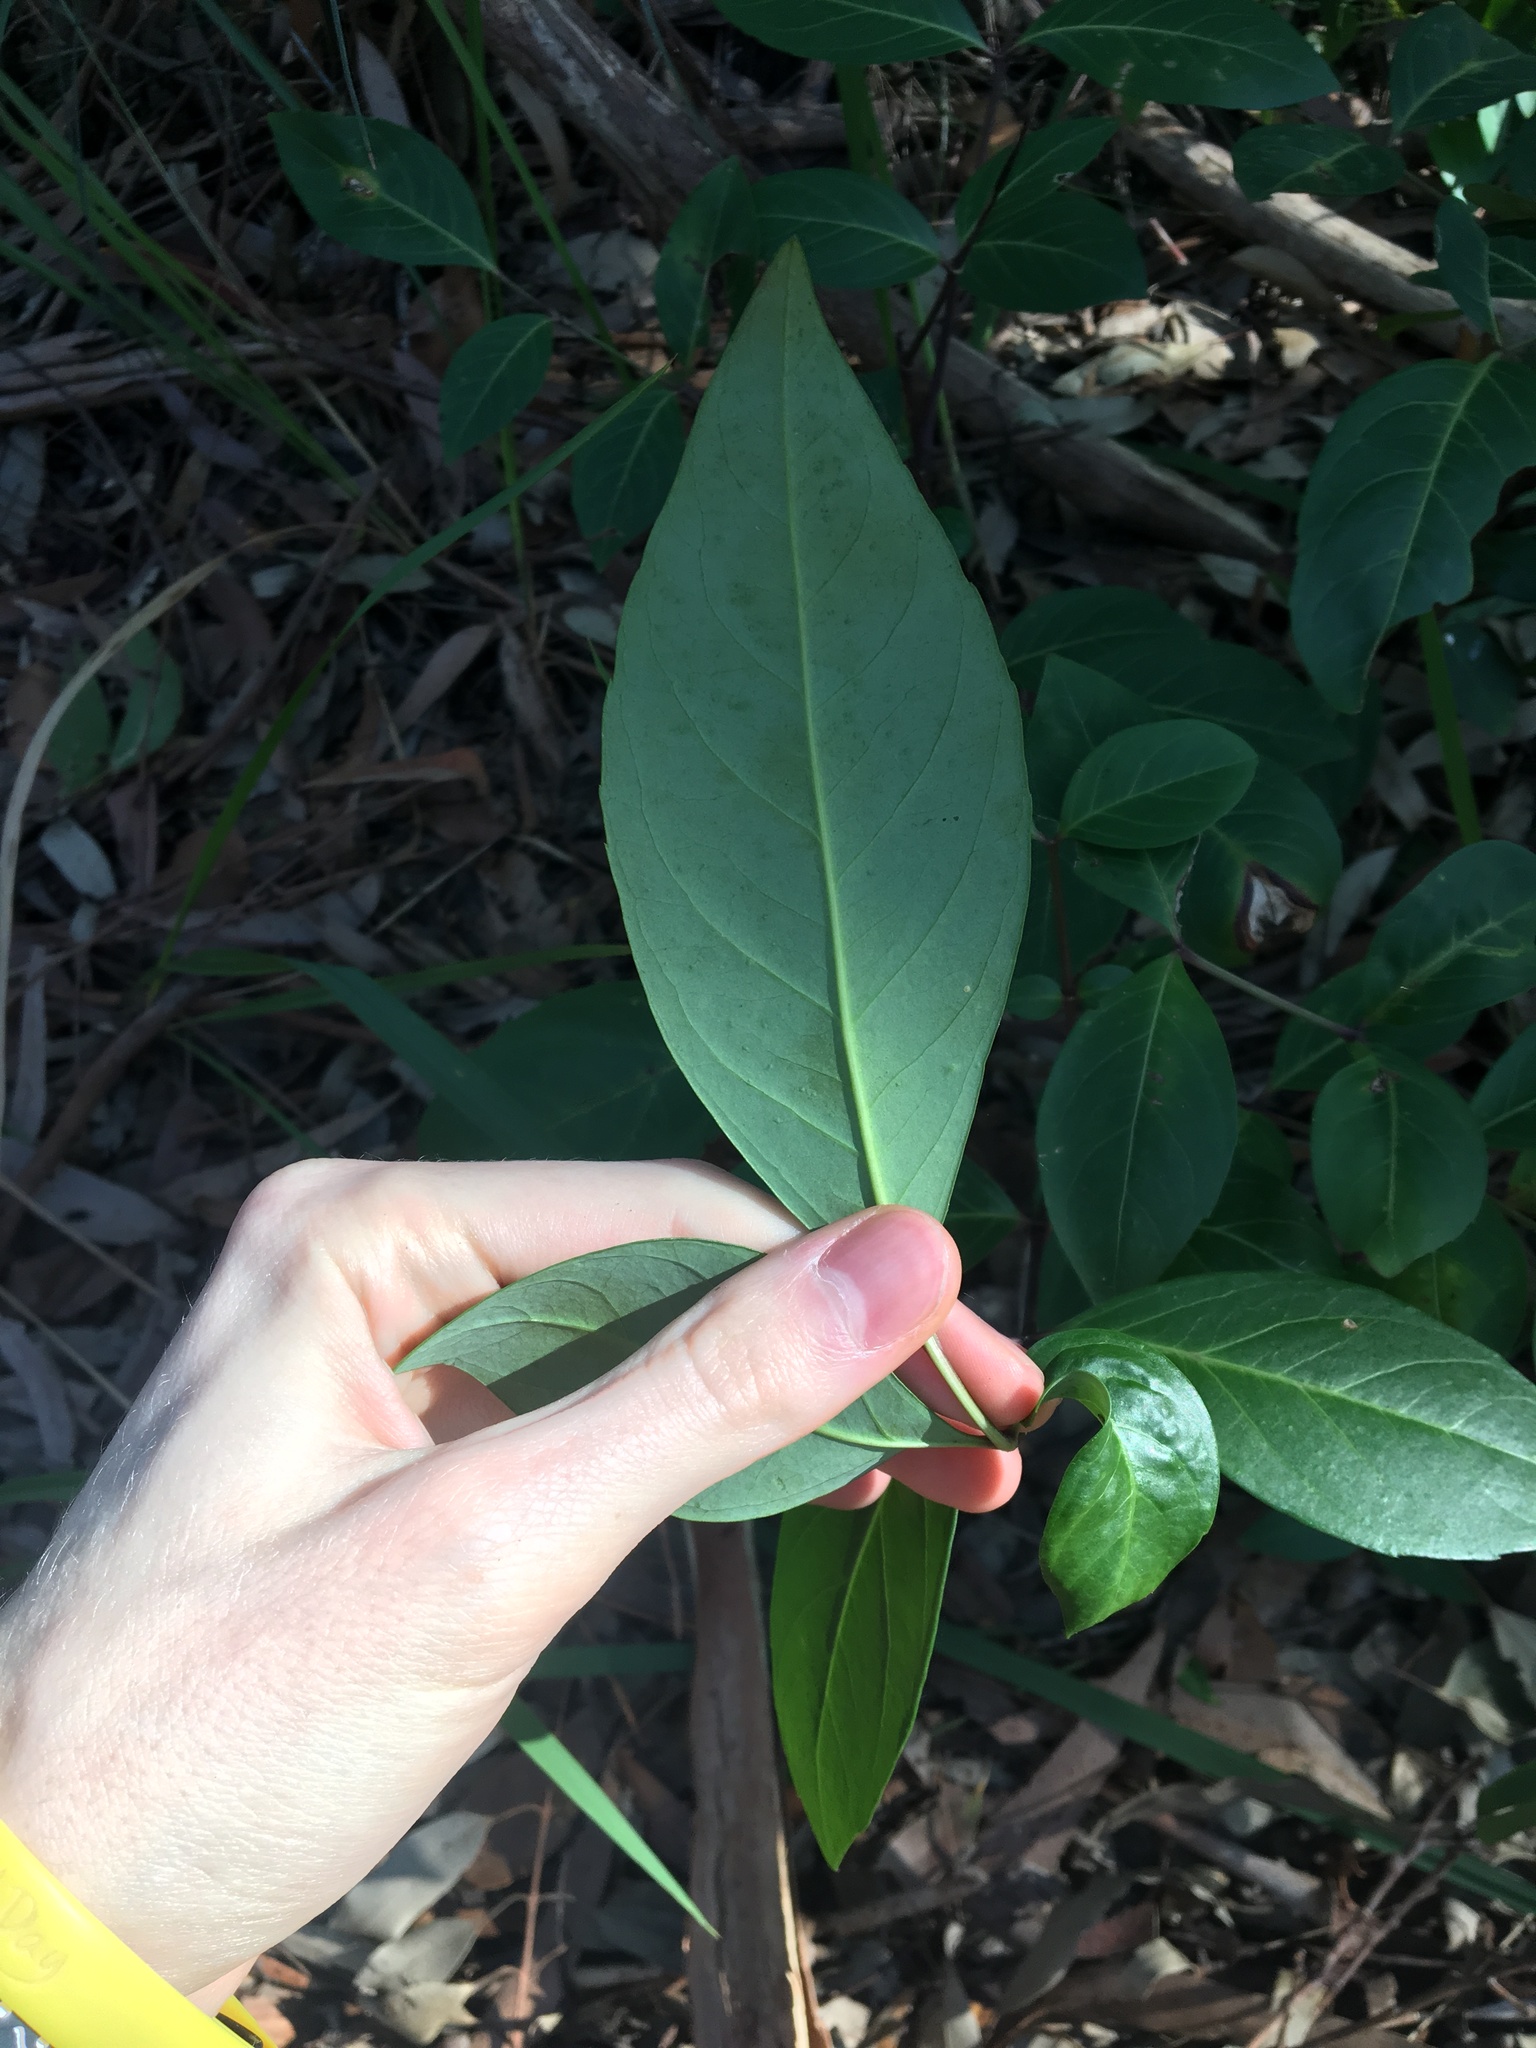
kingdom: Plantae
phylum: Tracheophyta
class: Magnoliopsida
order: Apiales
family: Araliaceae
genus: Polyscias
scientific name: Polyscias sambucifolia
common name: Elderberry-ash
